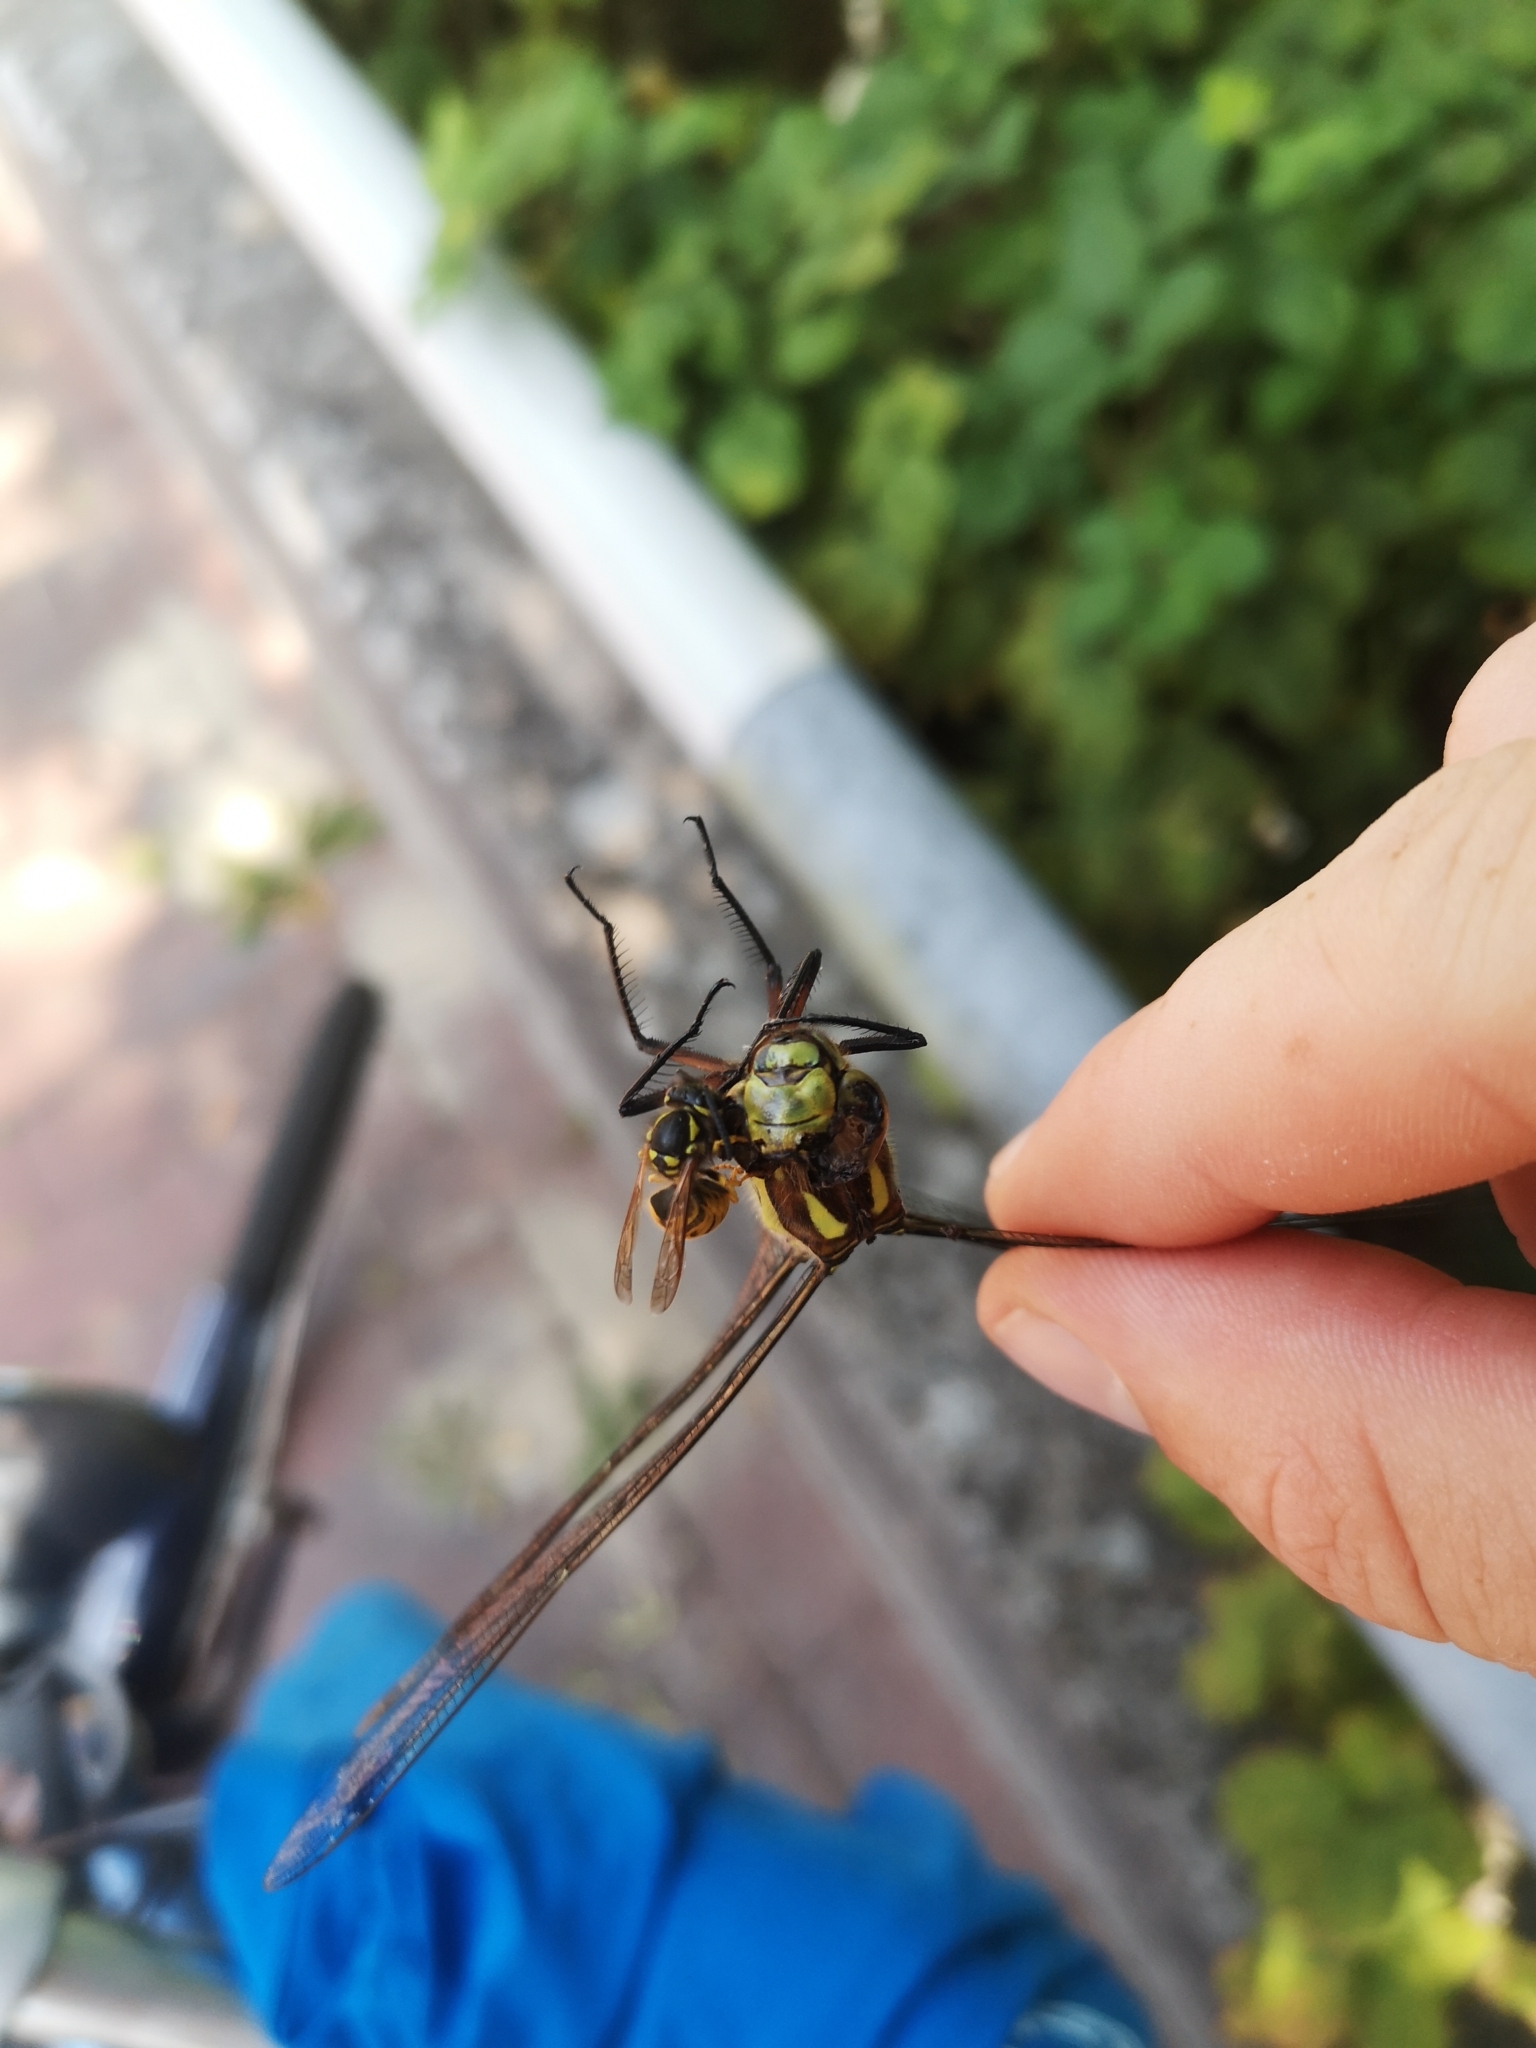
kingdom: Animalia
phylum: Arthropoda
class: Insecta
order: Odonata
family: Aeshnidae
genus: Aeshna
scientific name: Aeshna cyanea
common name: Southern hawker
